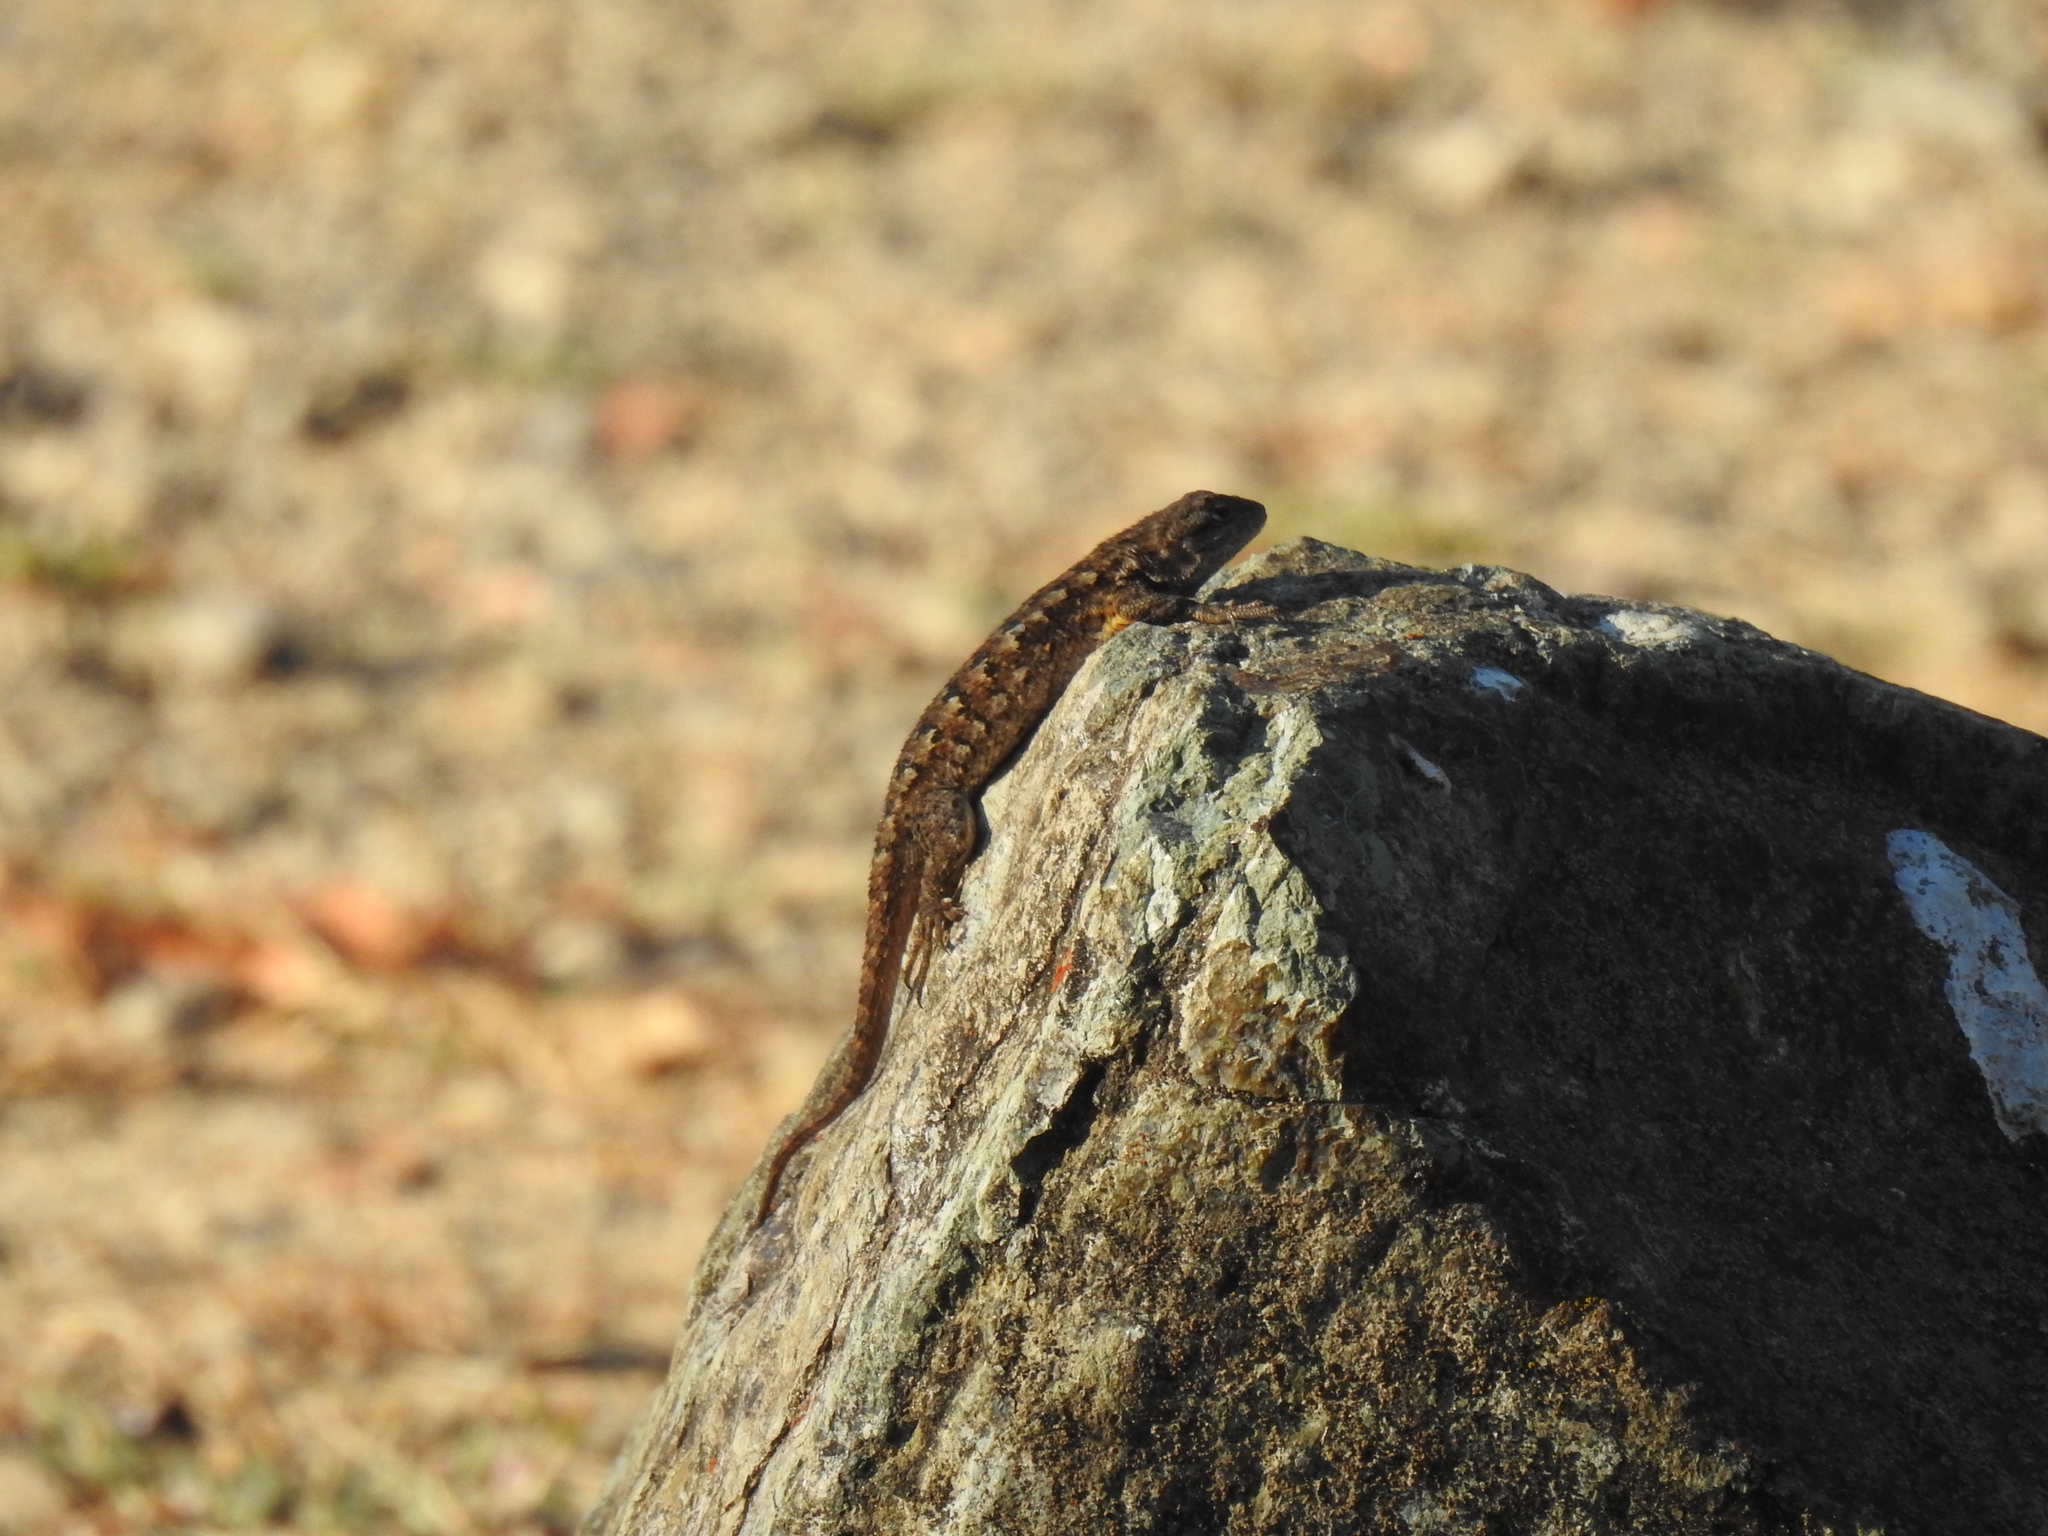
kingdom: Animalia
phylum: Chordata
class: Squamata
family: Phrynosomatidae
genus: Sceloporus
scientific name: Sceloporus occidentalis
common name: Western fence lizard
